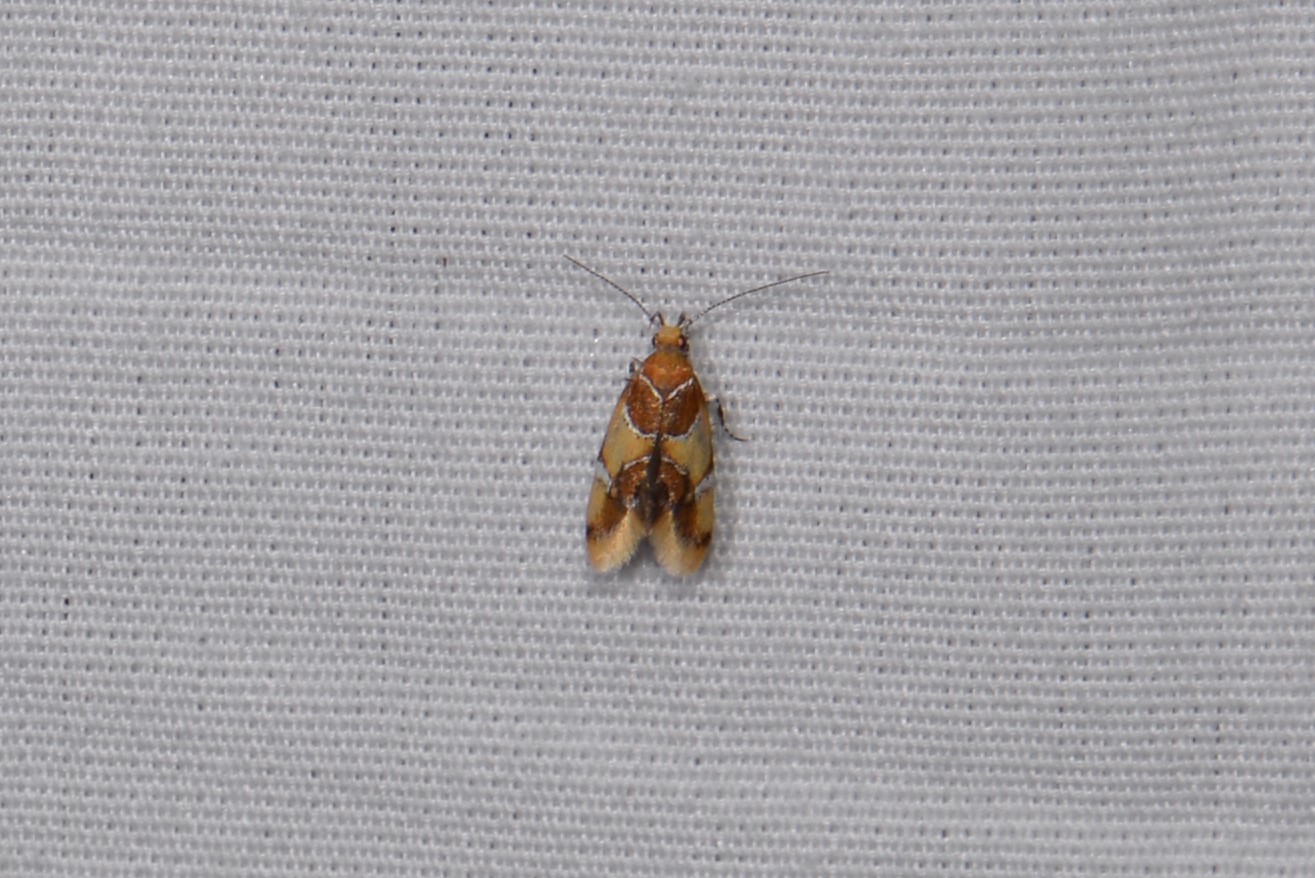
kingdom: Animalia
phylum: Arthropoda
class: Insecta
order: Lepidoptera
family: Oecophoridae
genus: Callima
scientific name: Callima argenticinctella
